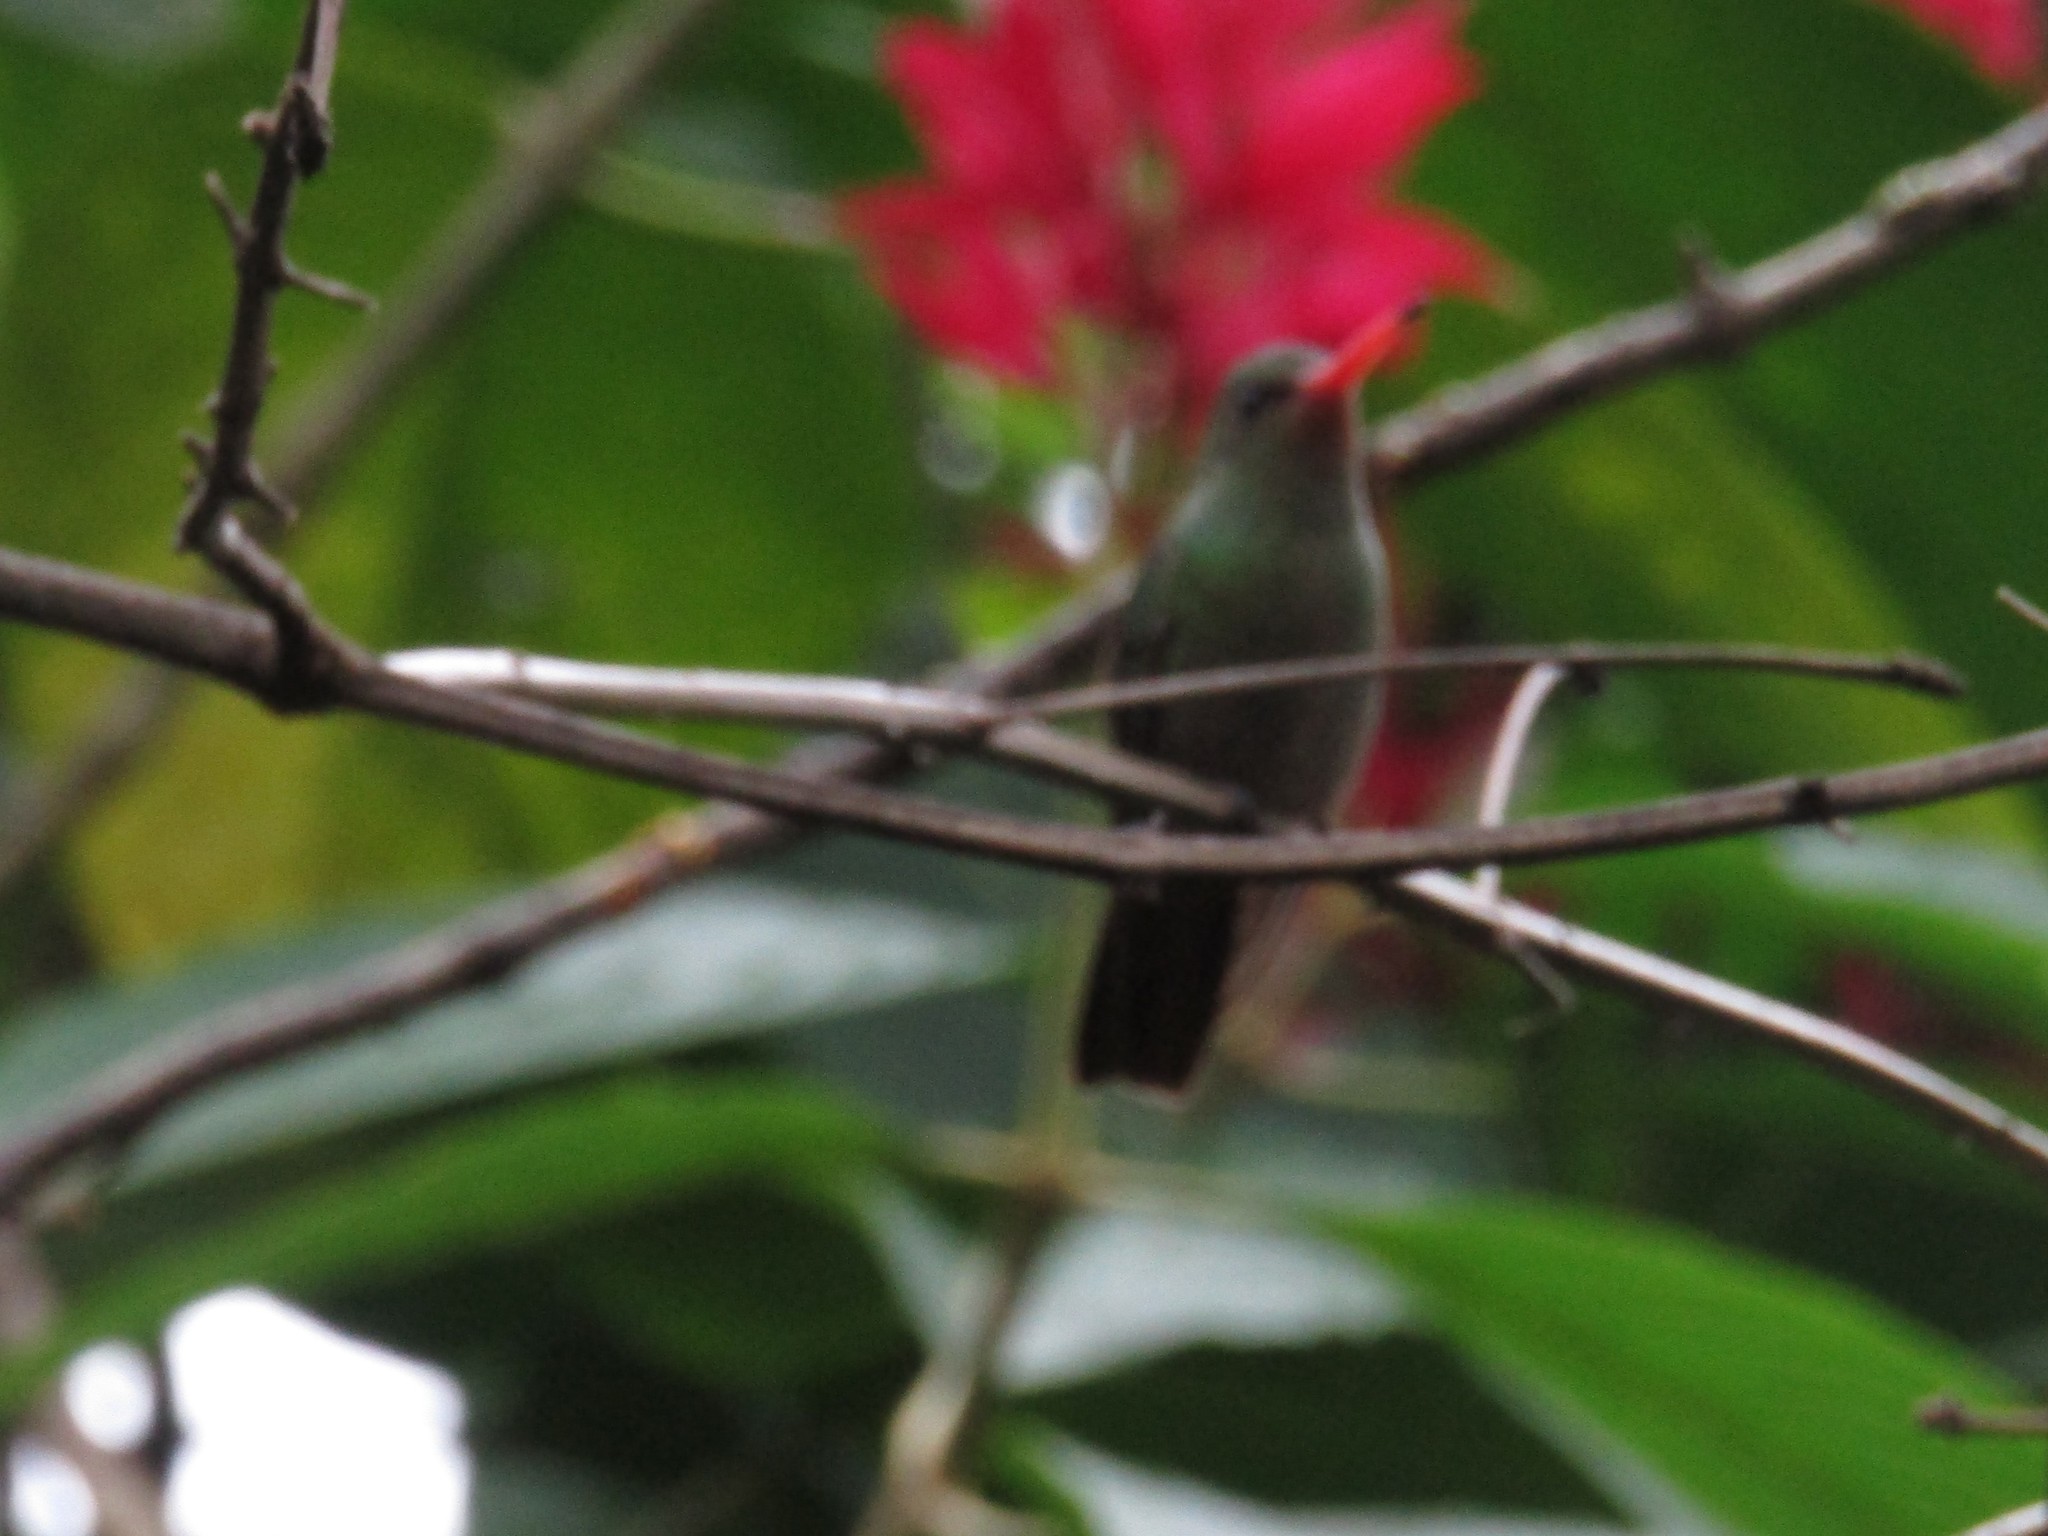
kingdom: Animalia
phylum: Chordata
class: Aves
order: Apodiformes
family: Trochilidae
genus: Hylocharis
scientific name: Hylocharis chrysura
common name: Gilded sapphire
